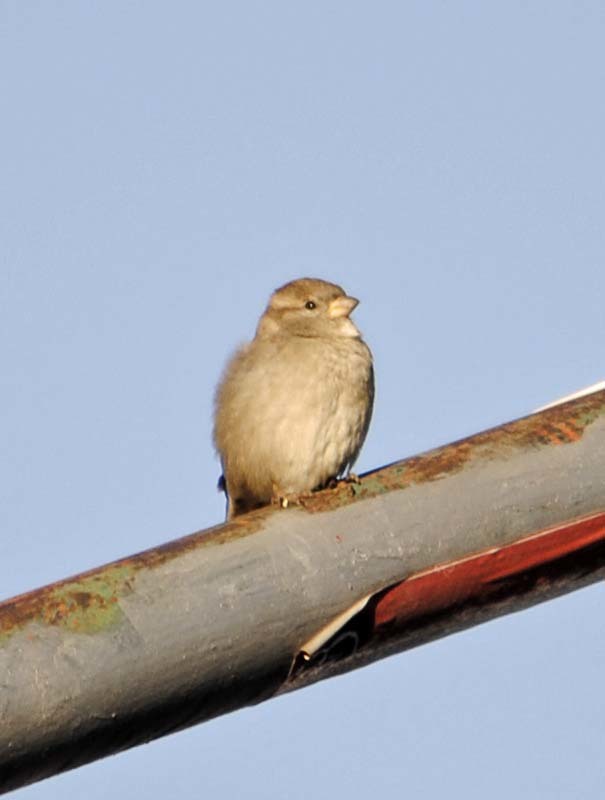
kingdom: Animalia
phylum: Chordata
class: Aves
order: Passeriformes
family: Passeridae
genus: Passer
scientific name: Passer domesticus
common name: House sparrow
